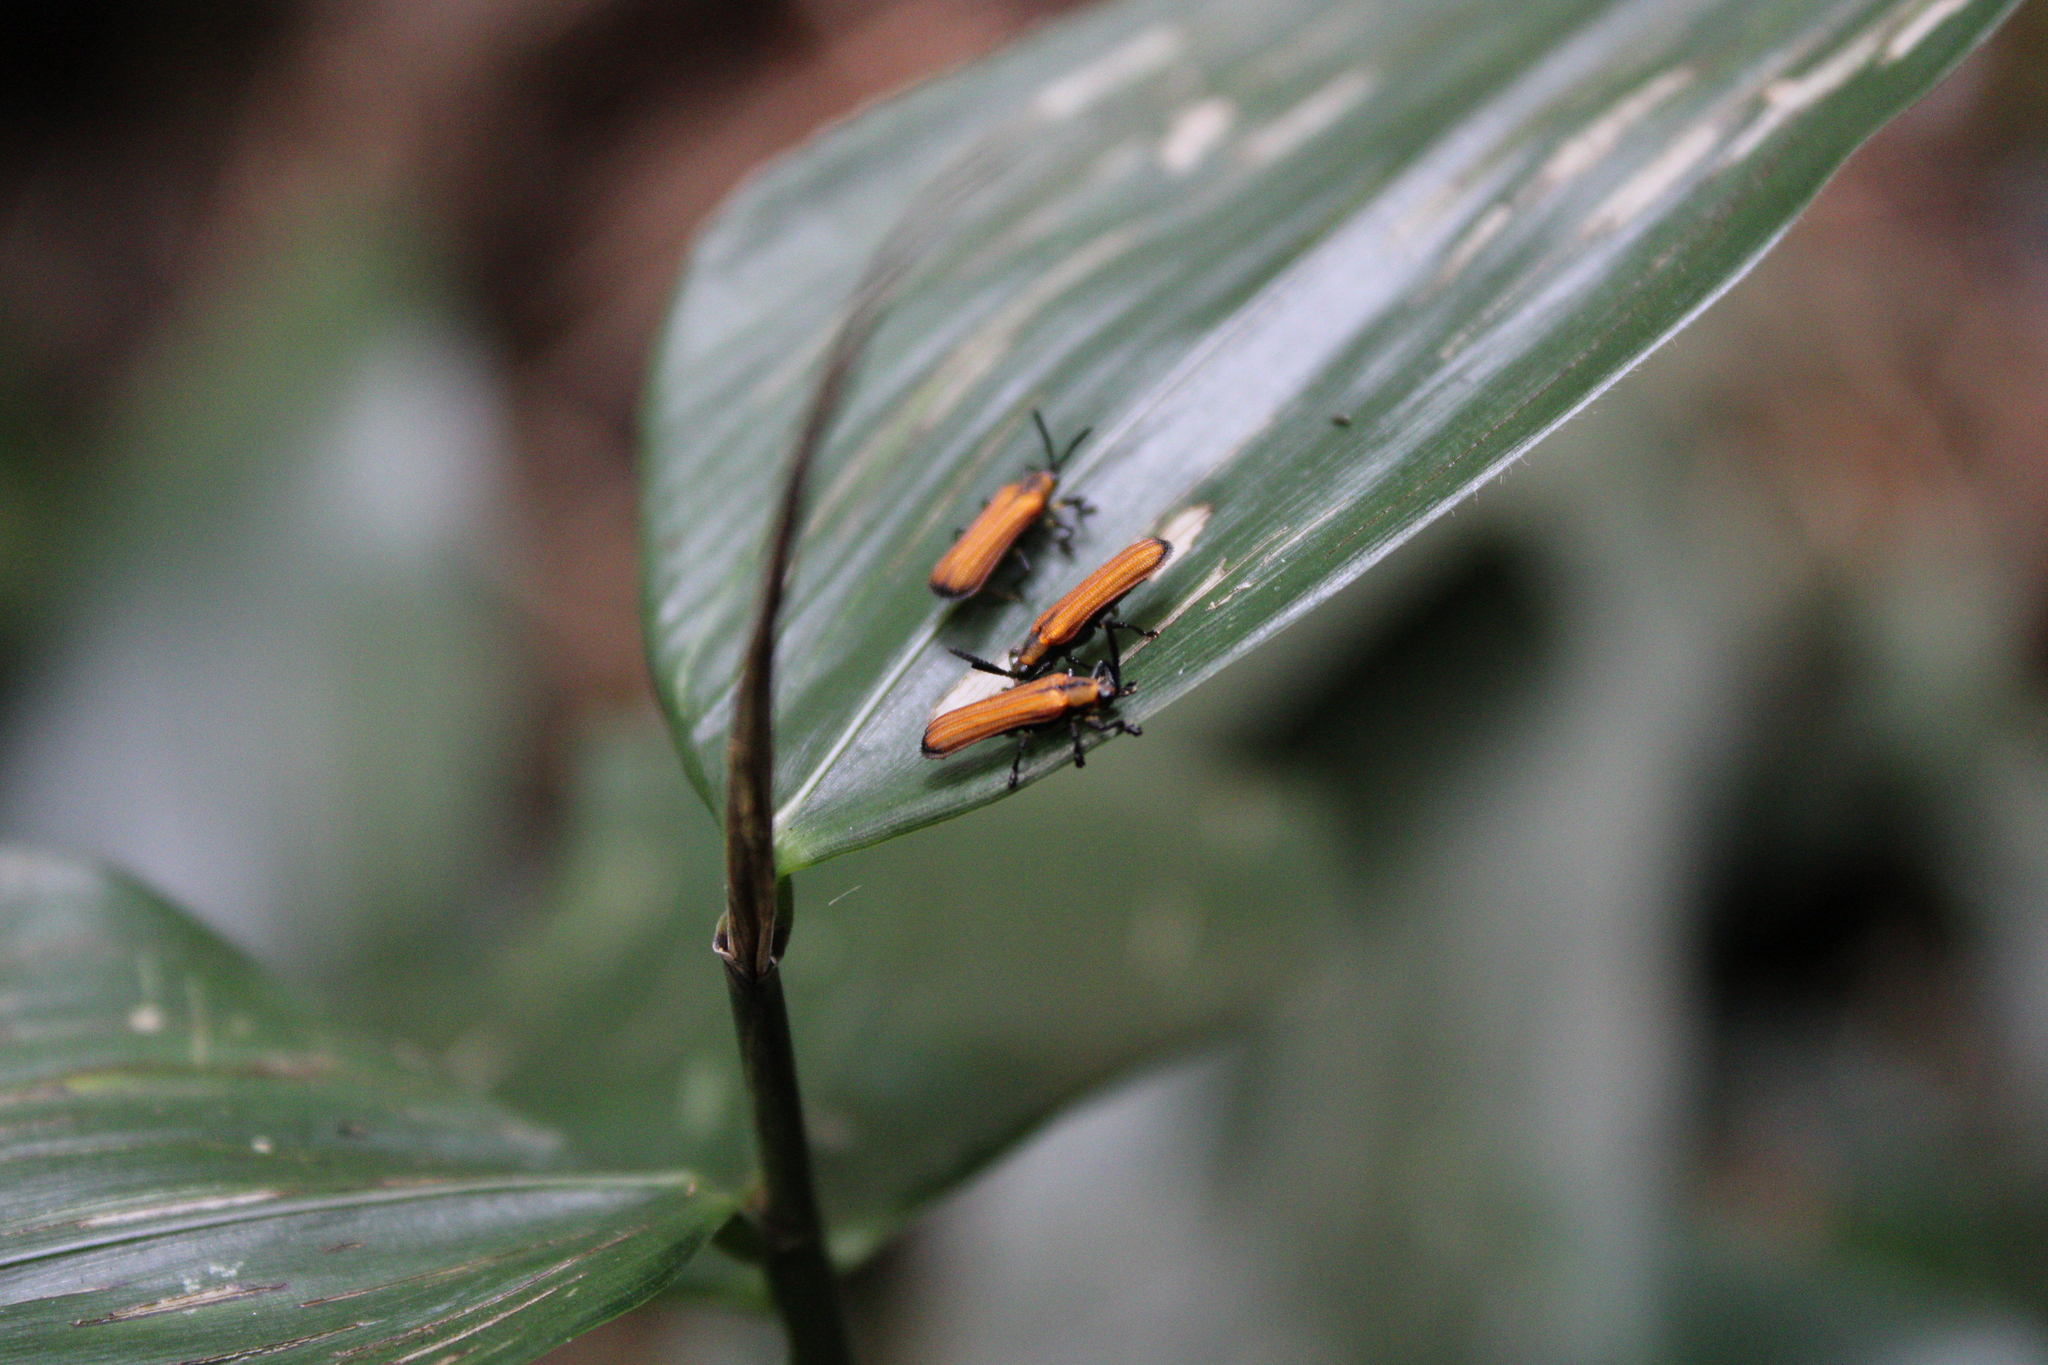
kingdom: Animalia
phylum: Arthropoda
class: Insecta
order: Coleoptera
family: Chrysomelidae
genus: Chalepus
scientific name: Chalepus flaveolus
